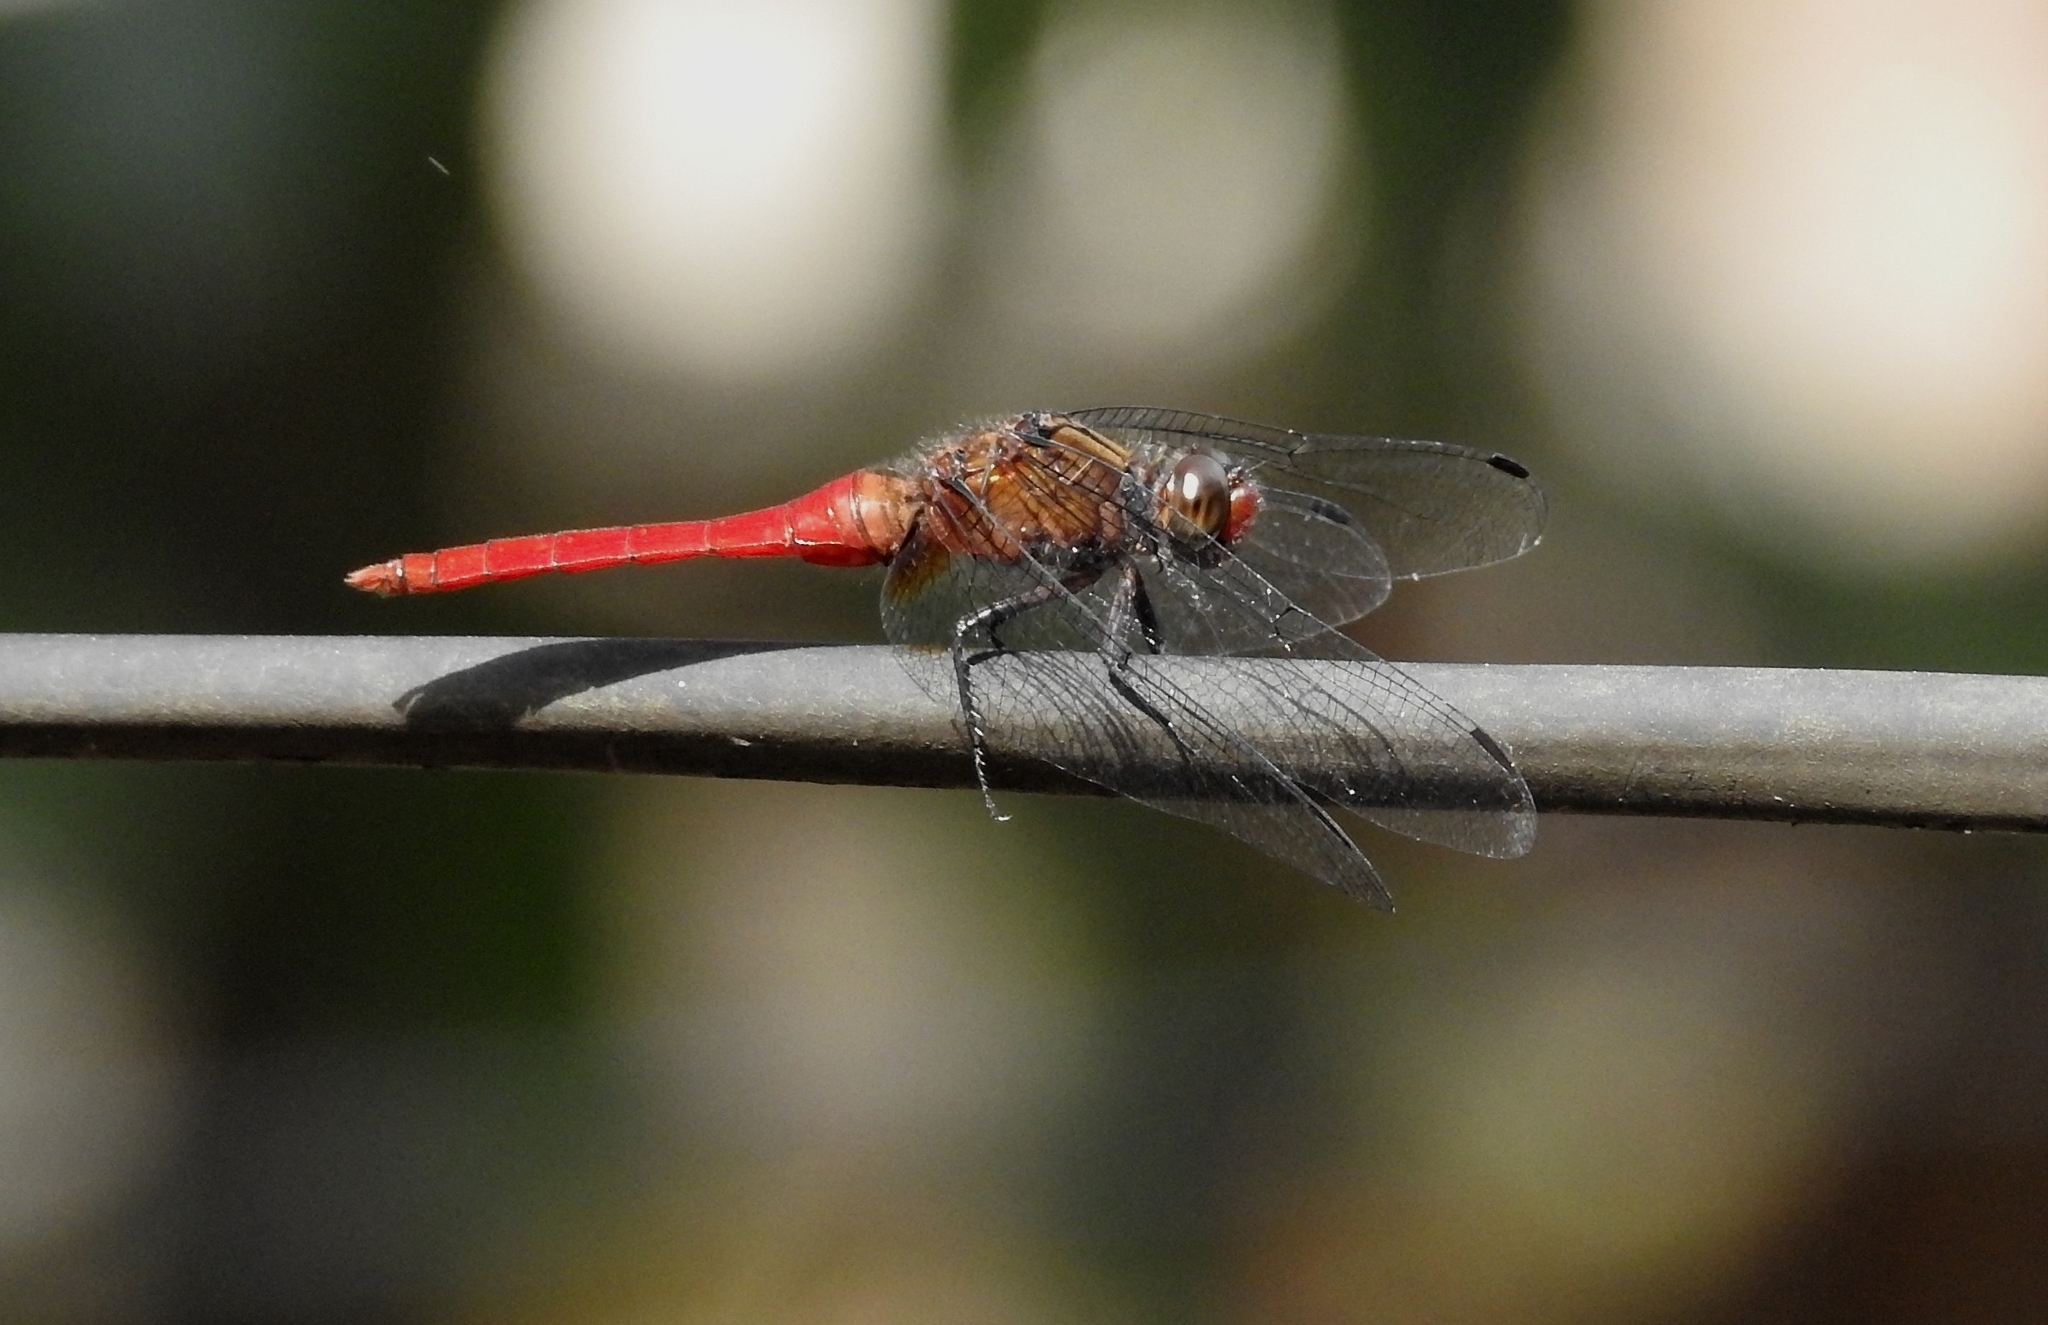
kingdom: Animalia
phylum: Arthropoda
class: Insecta
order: Odonata
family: Libellulidae
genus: Orthetrum
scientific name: Orthetrum chrysis
